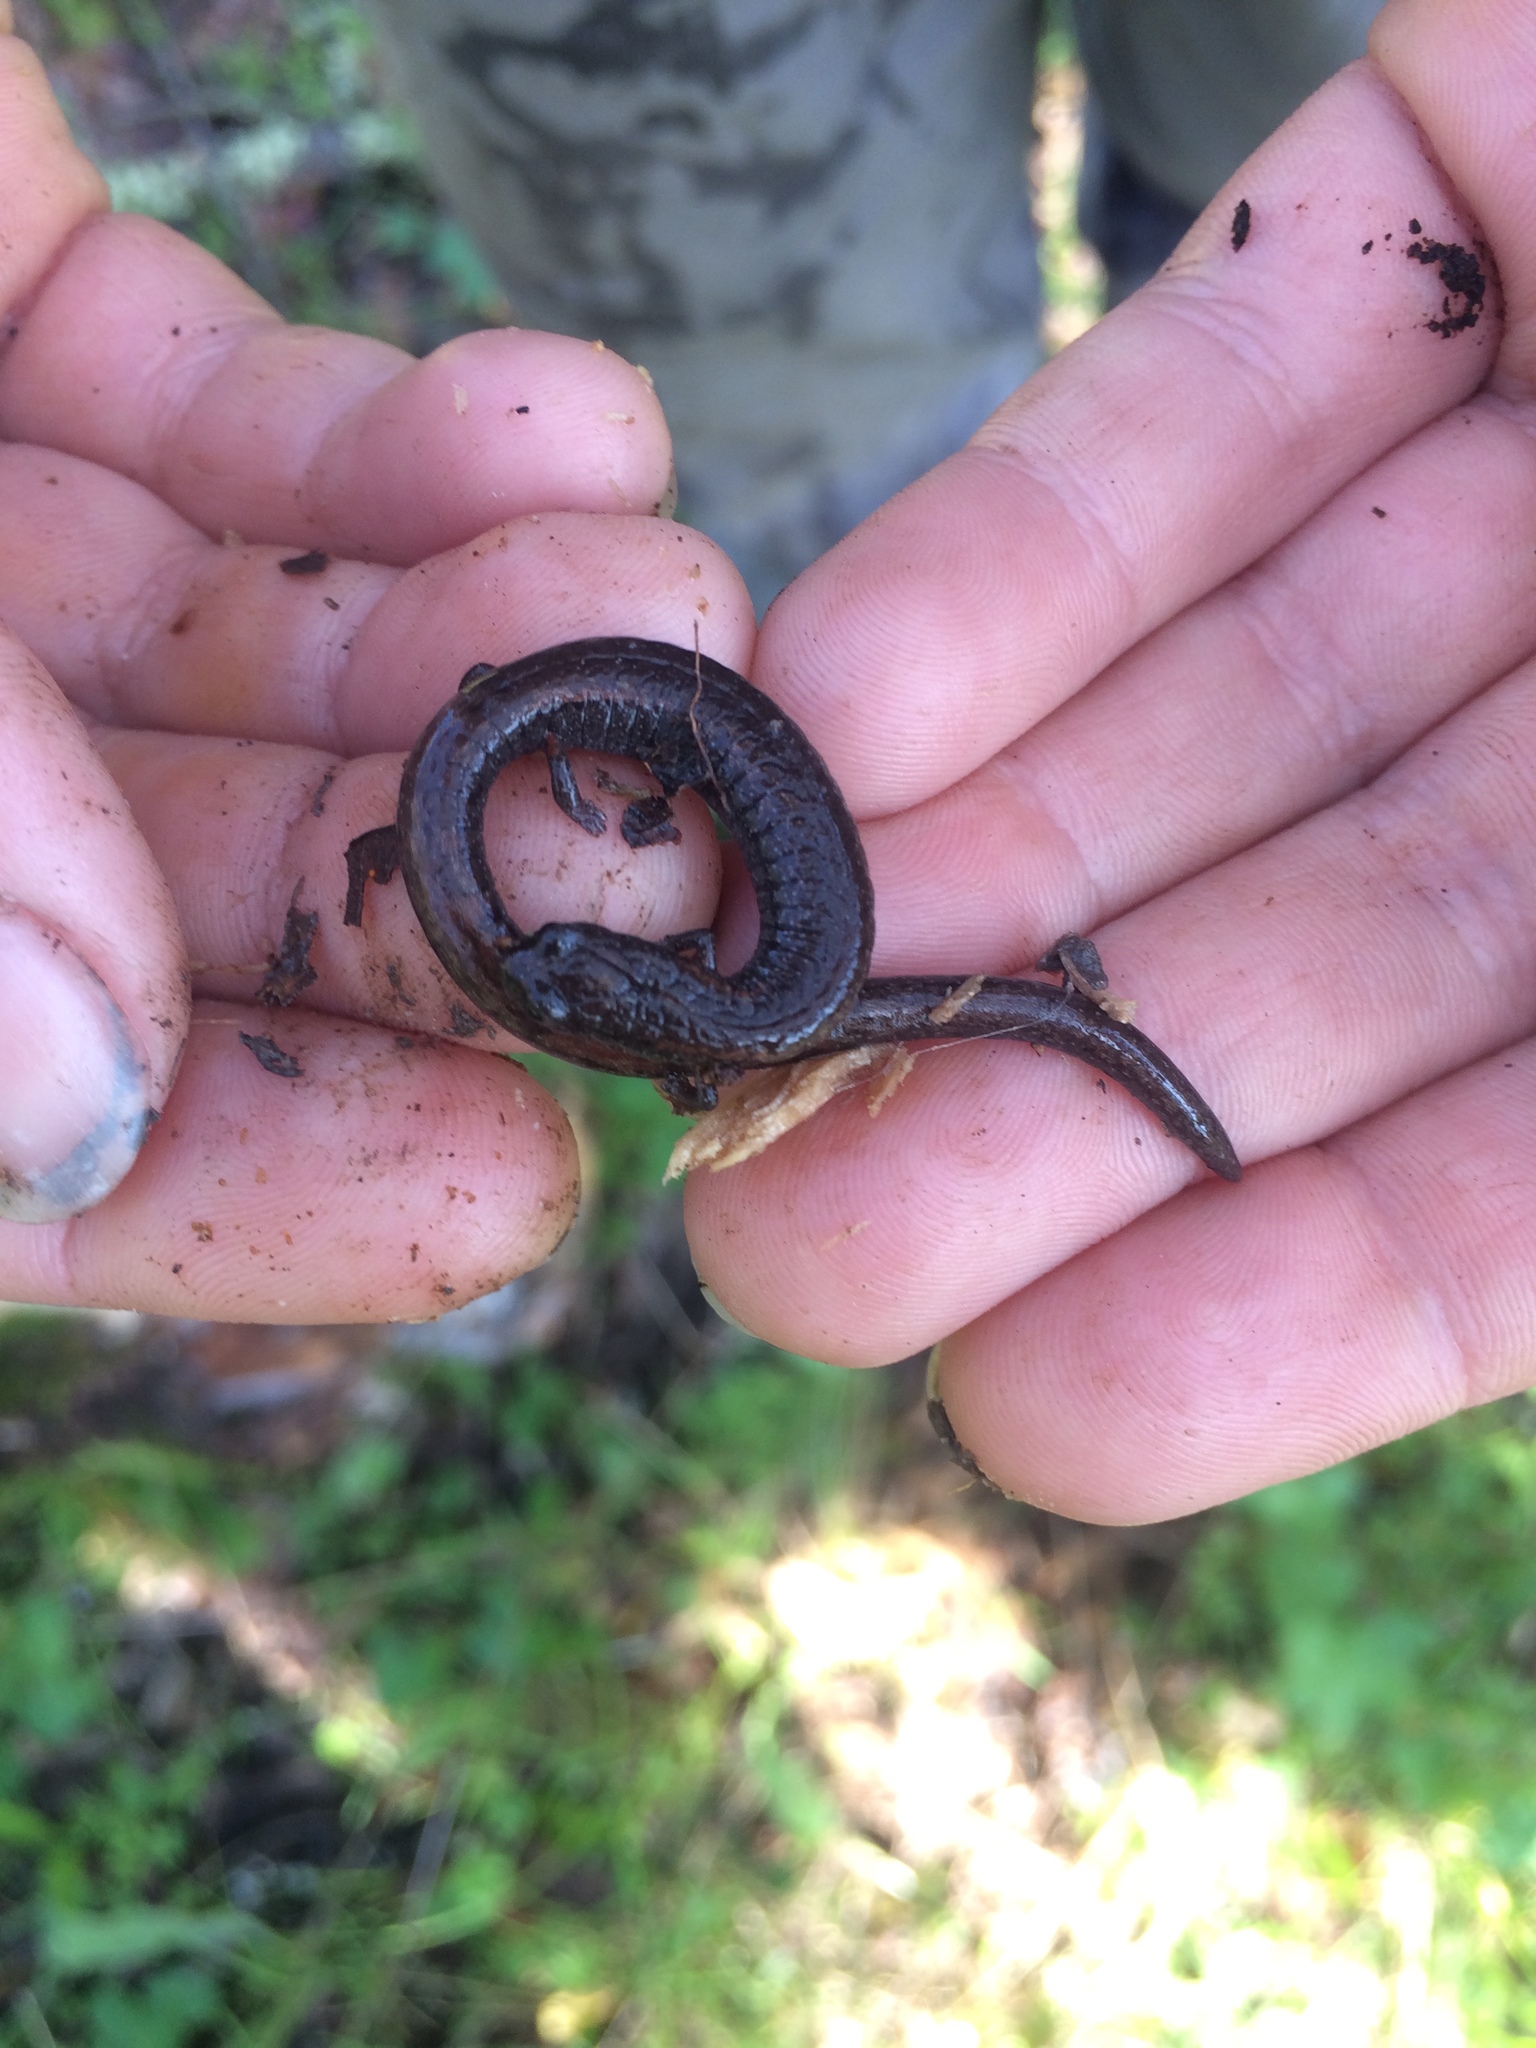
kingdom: Animalia
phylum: Chordata
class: Amphibia
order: Caudata
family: Plethodontidae
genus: Batrachoseps
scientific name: Batrachoseps attenuatus
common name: California slender salamander
